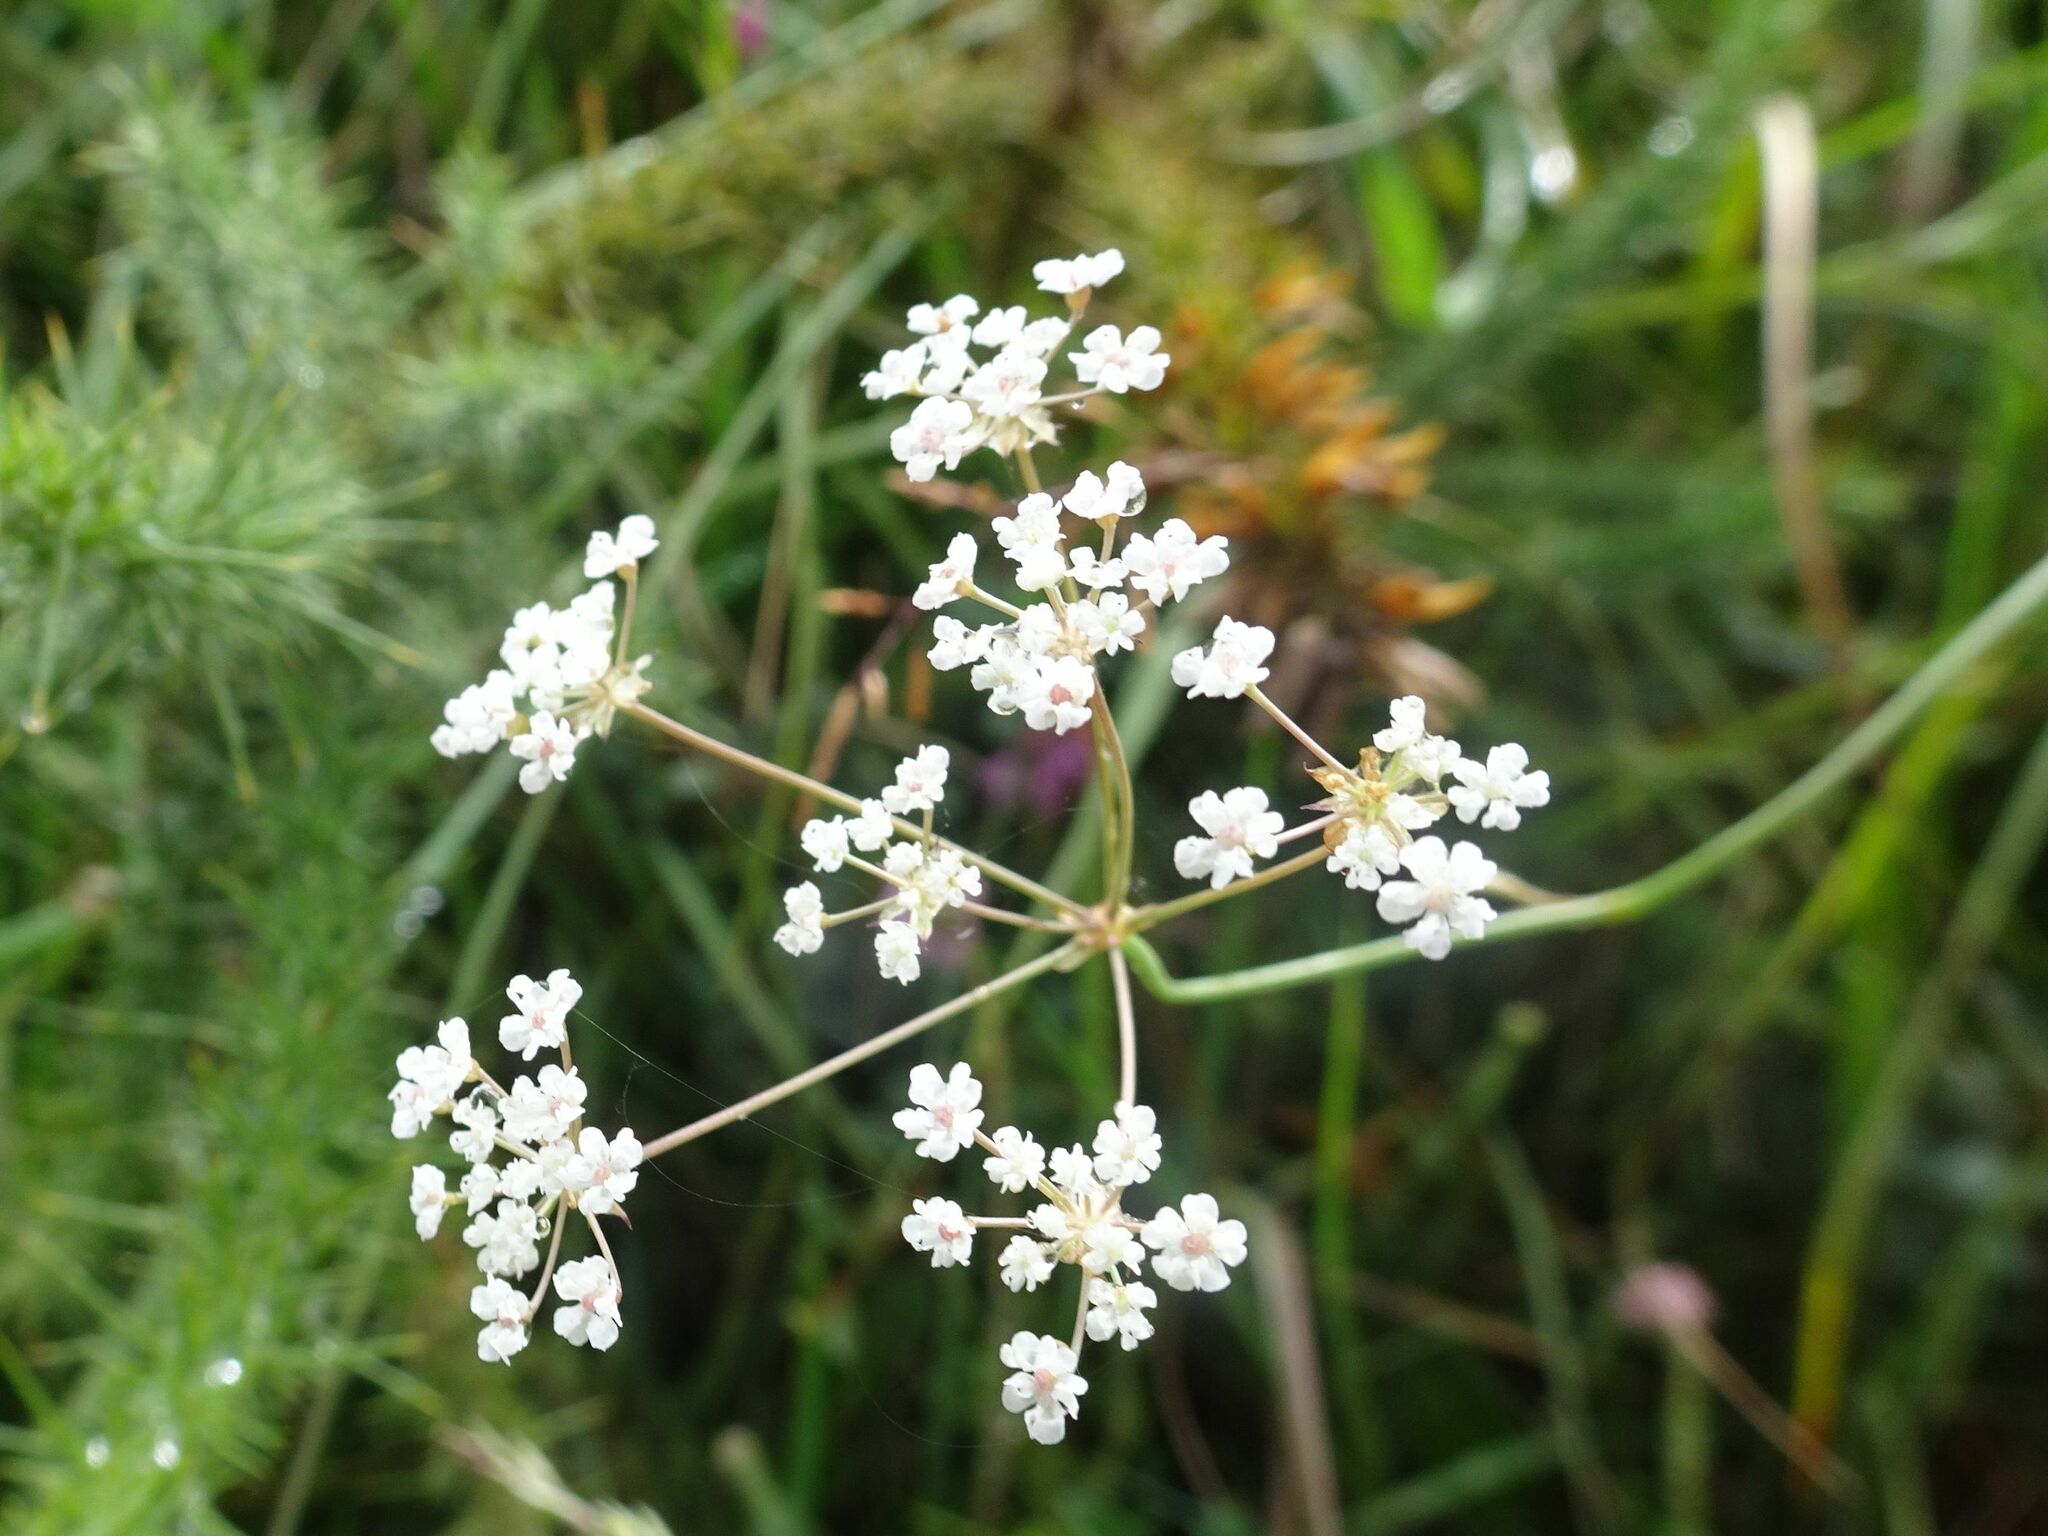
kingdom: Plantae
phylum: Tracheophyta
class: Magnoliopsida
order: Apiales
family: Apiaceae
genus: Trocdaris
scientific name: Trocdaris verticillatum
